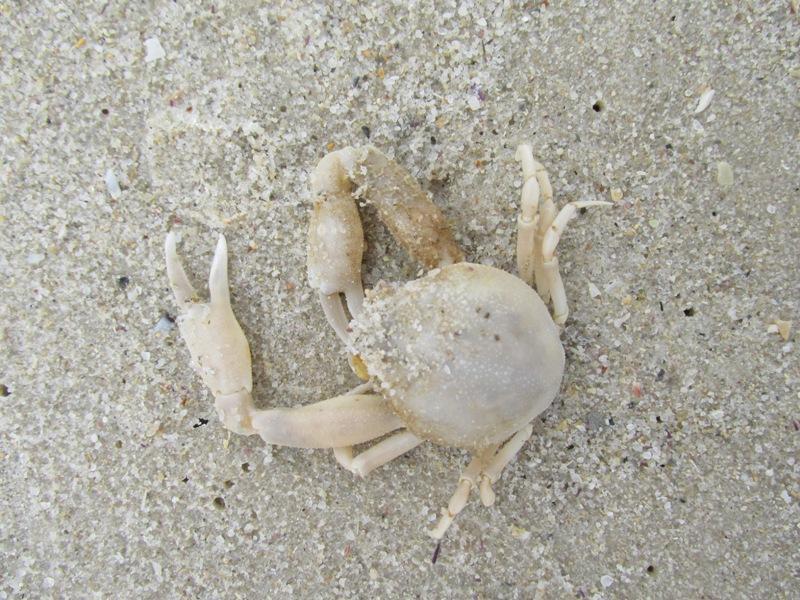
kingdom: Animalia
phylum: Arthropoda
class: Malacostraca
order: Decapoda
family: Leucosiidae
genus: Afrophila
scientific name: Afrophila punctata
